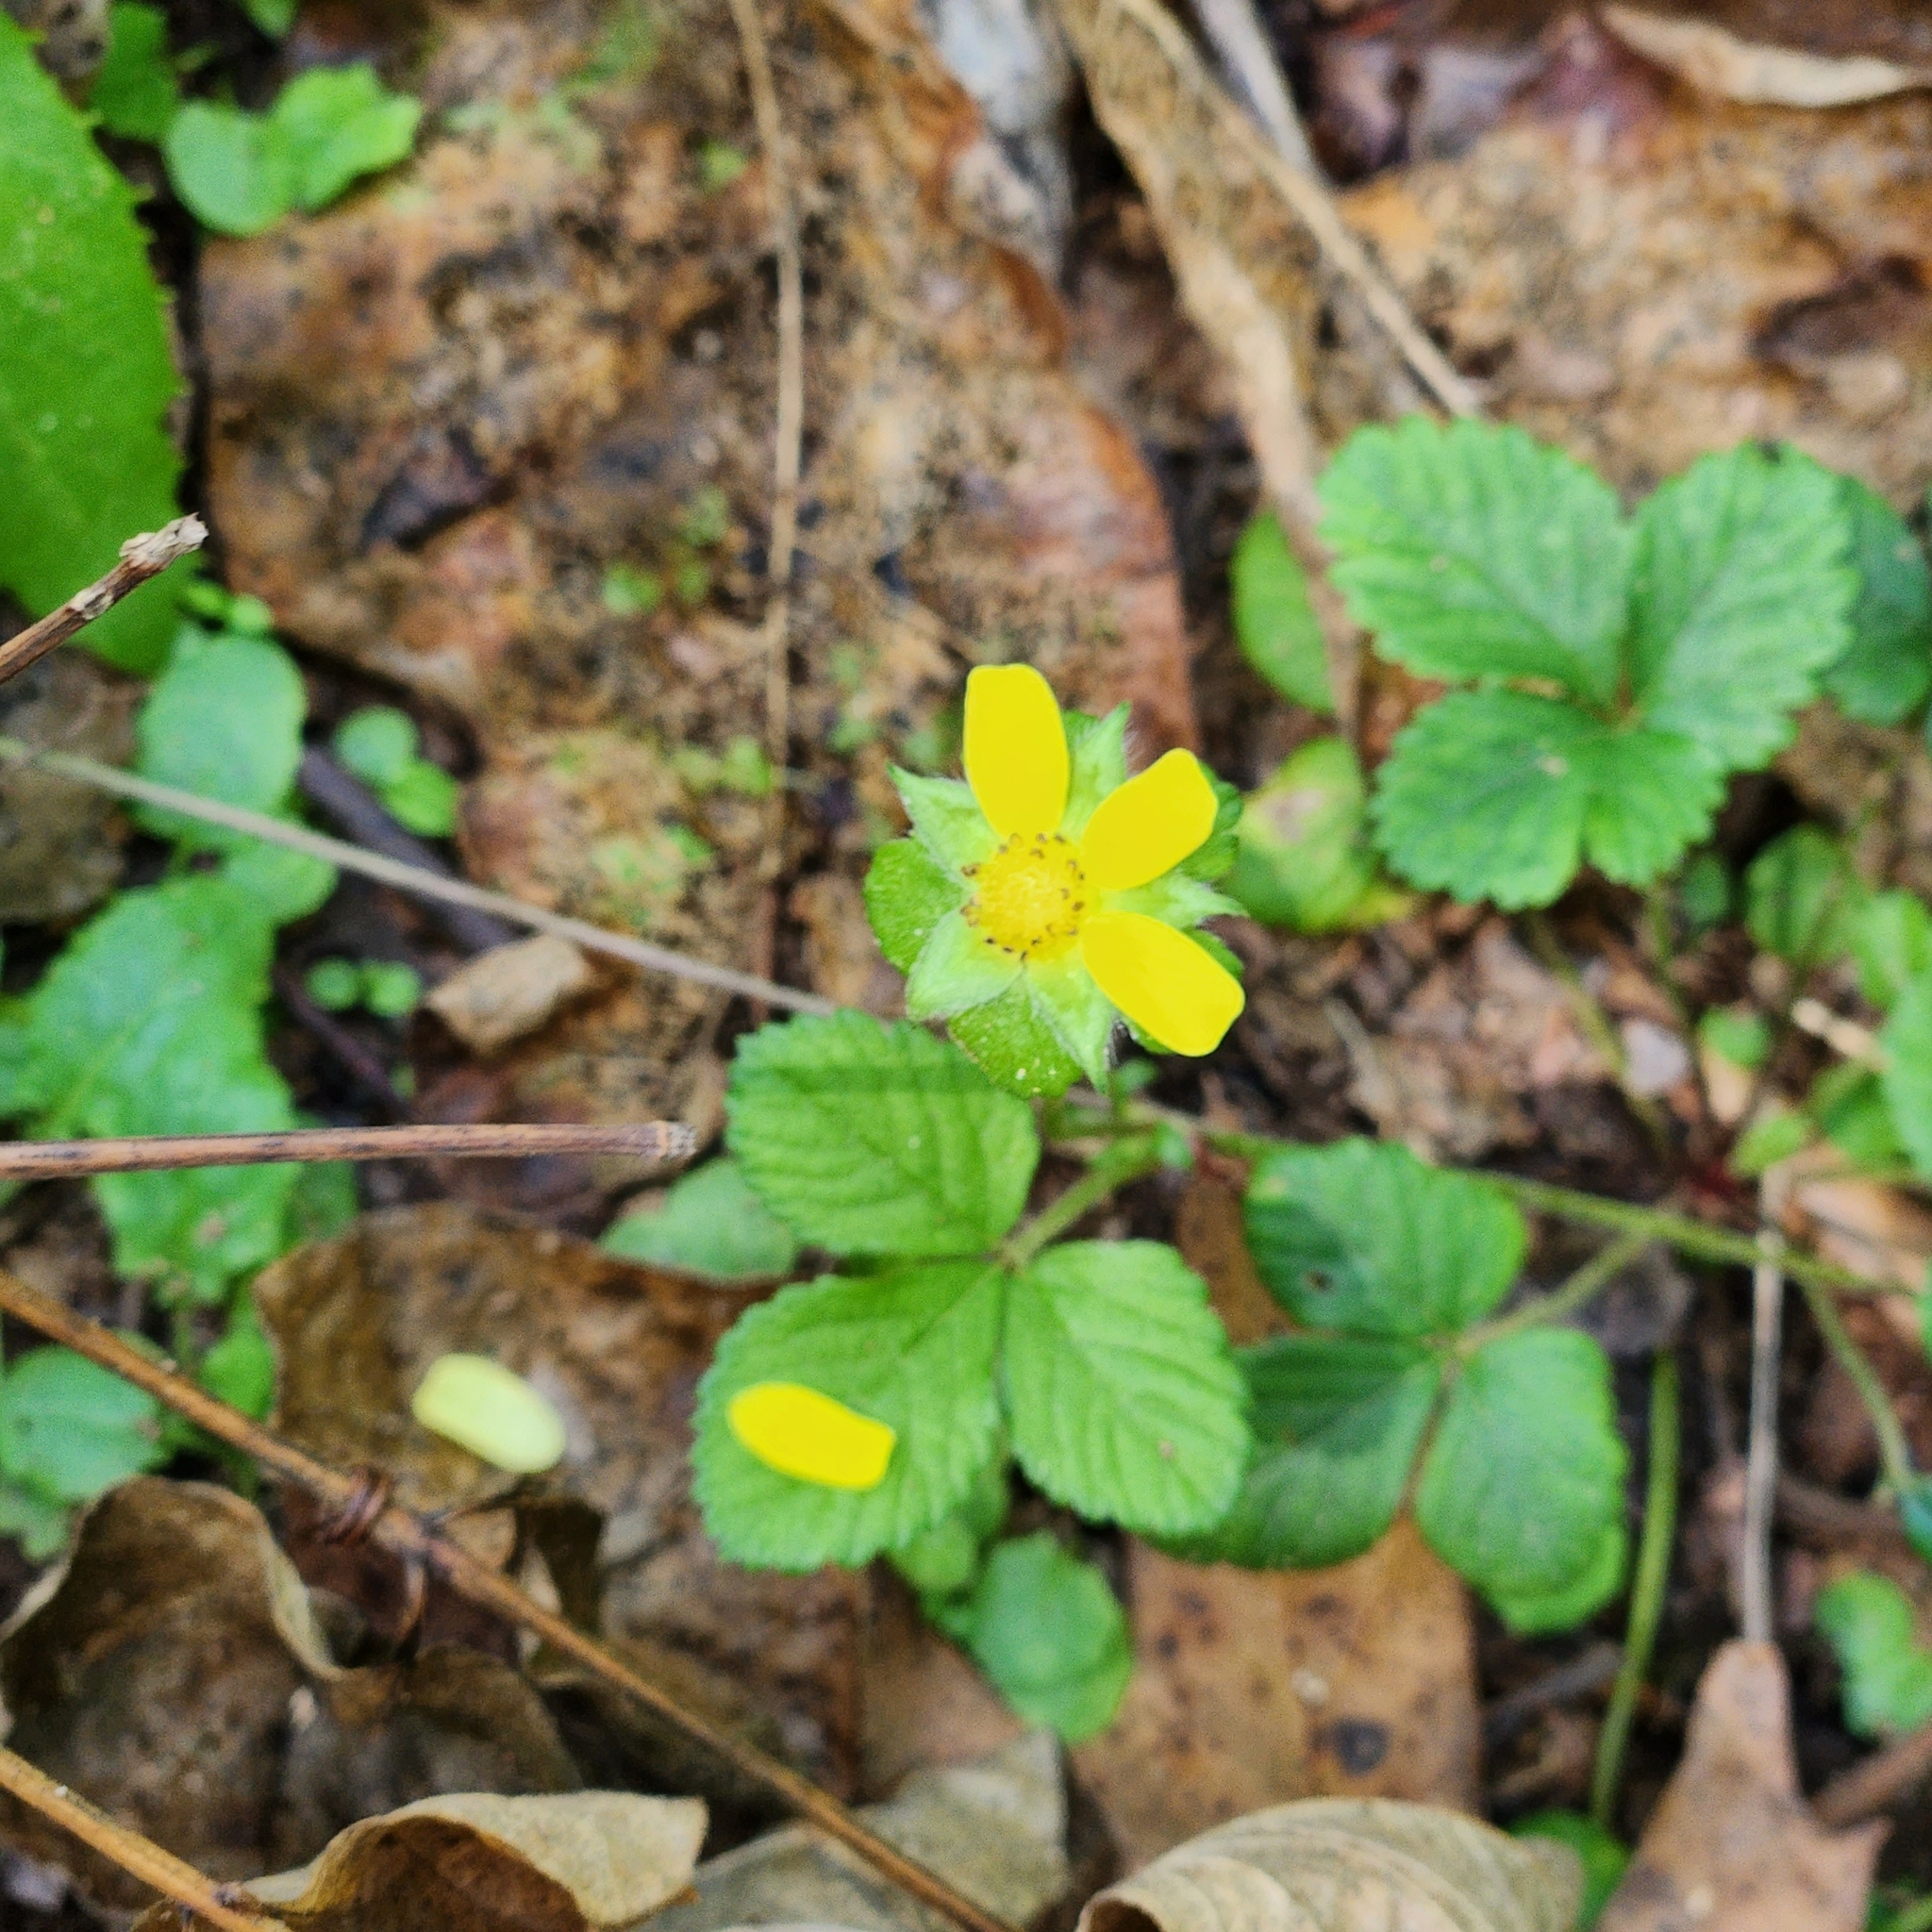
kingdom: Plantae
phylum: Tracheophyta
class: Magnoliopsida
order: Rosales
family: Rosaceae
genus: Potentilla
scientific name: Potentilla indica
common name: Yellow-flowered strawberry
